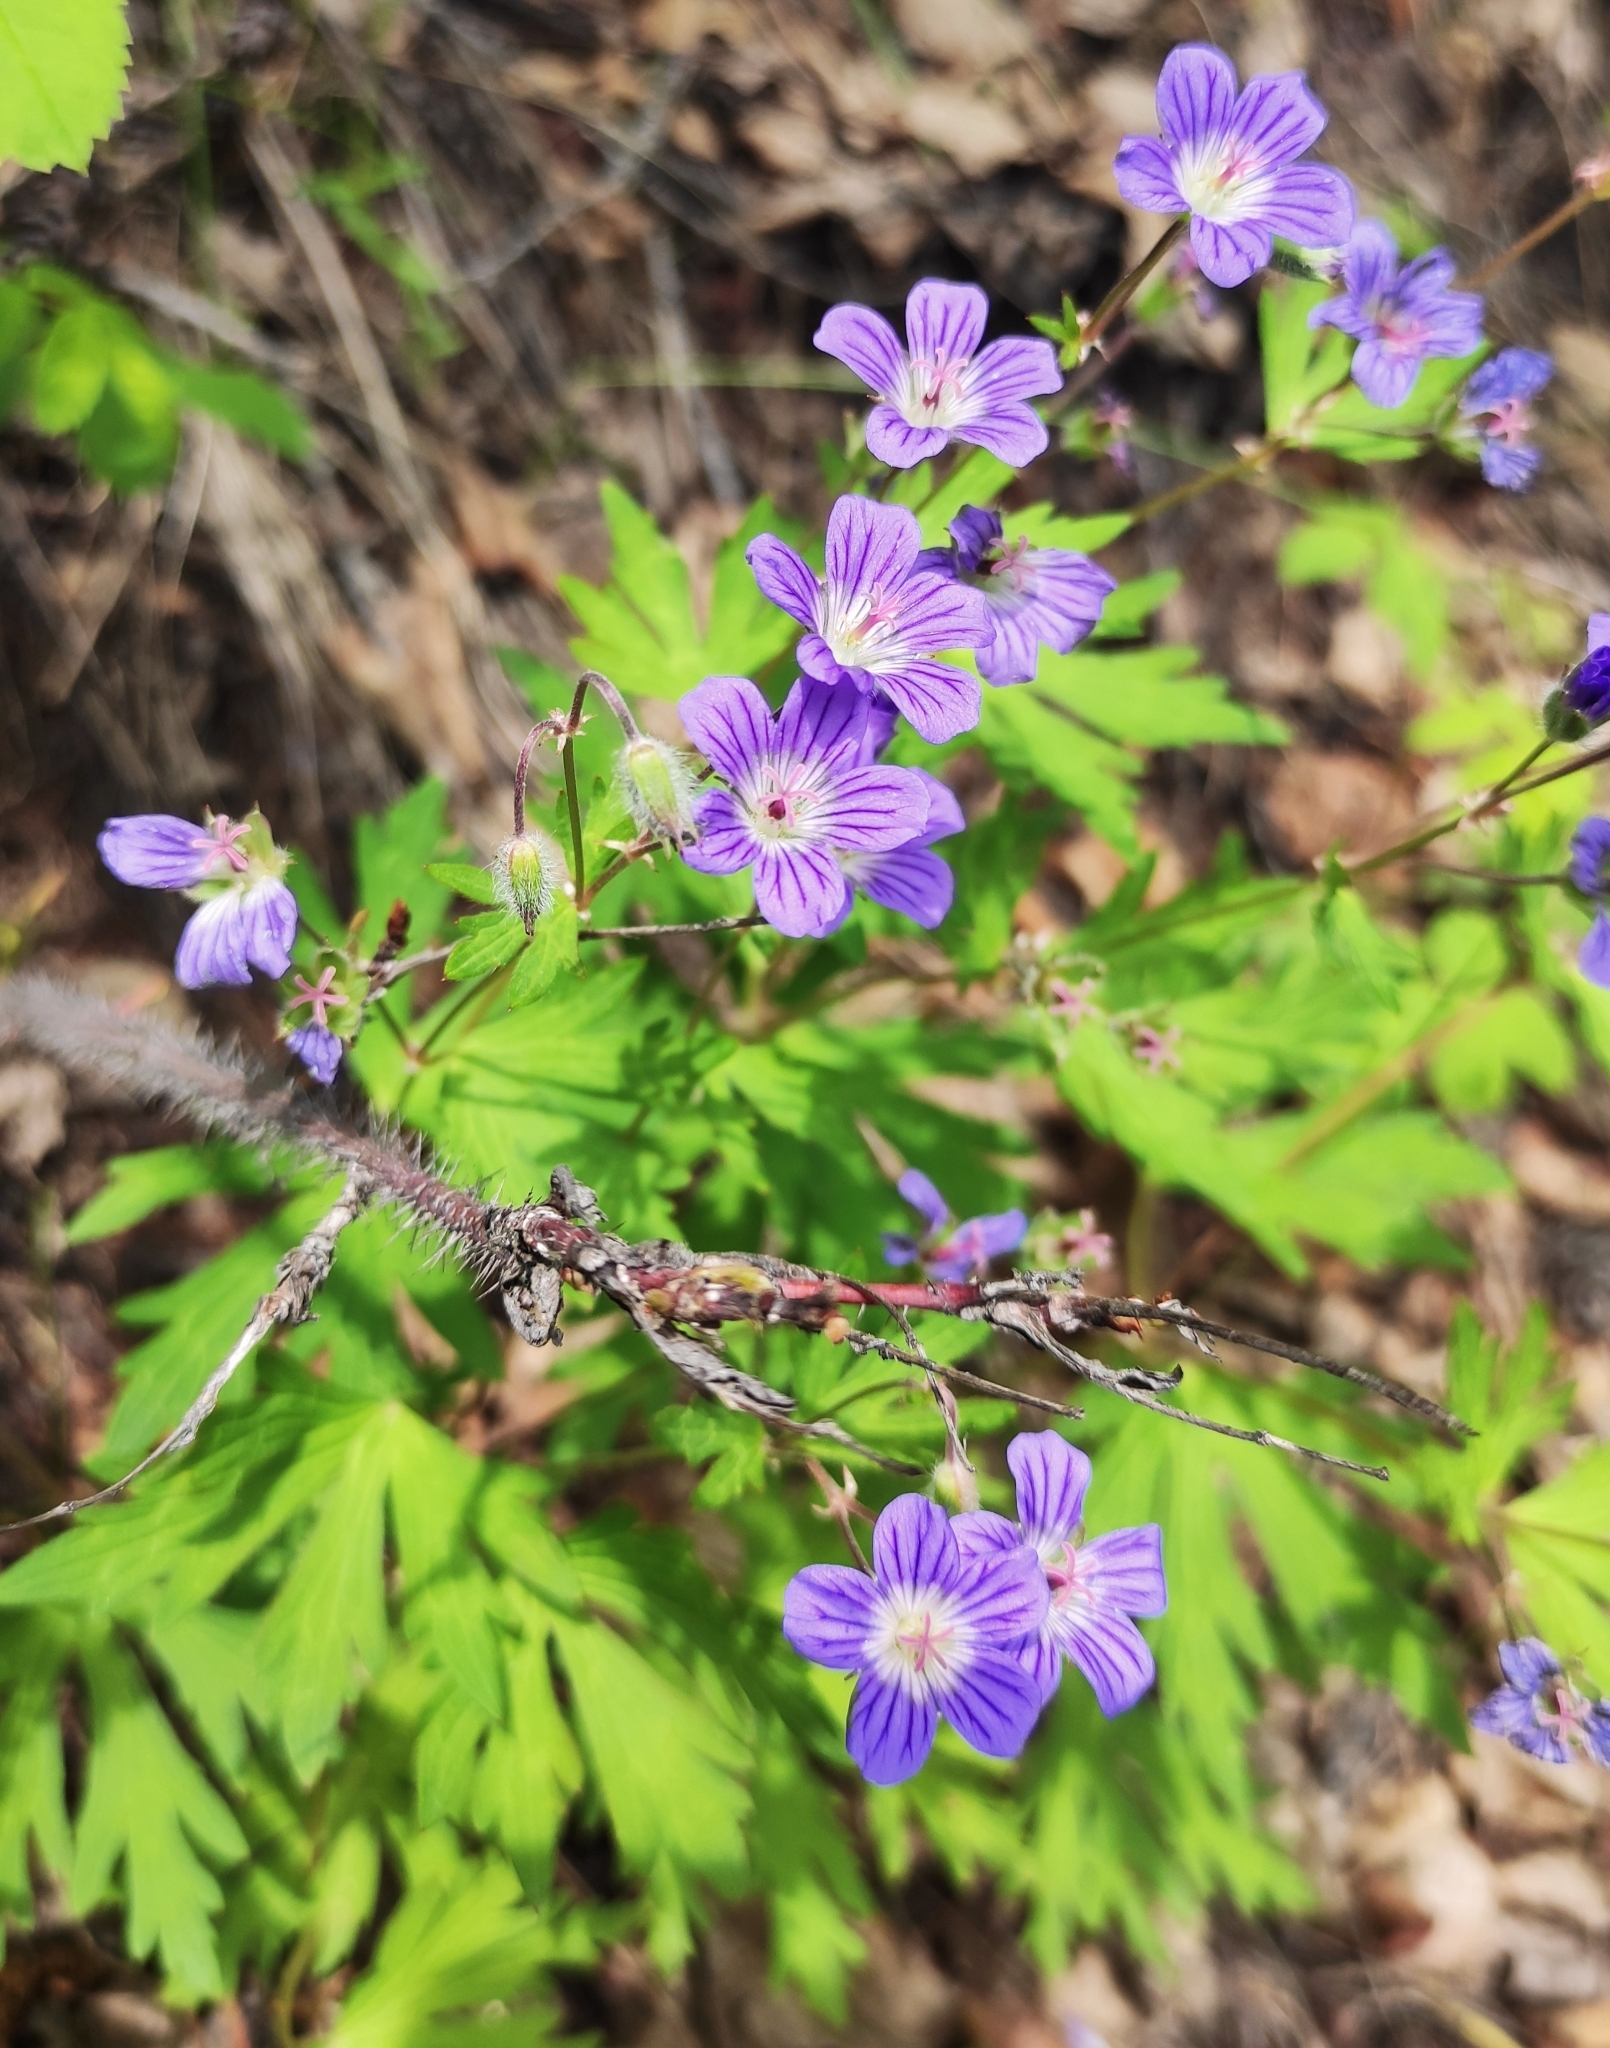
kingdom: Plantae
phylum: Tracheophyta
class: Magnoliopsida
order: Geraniales
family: Geraniaceae
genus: Geranium
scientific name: Geranium pseudosibiricum
